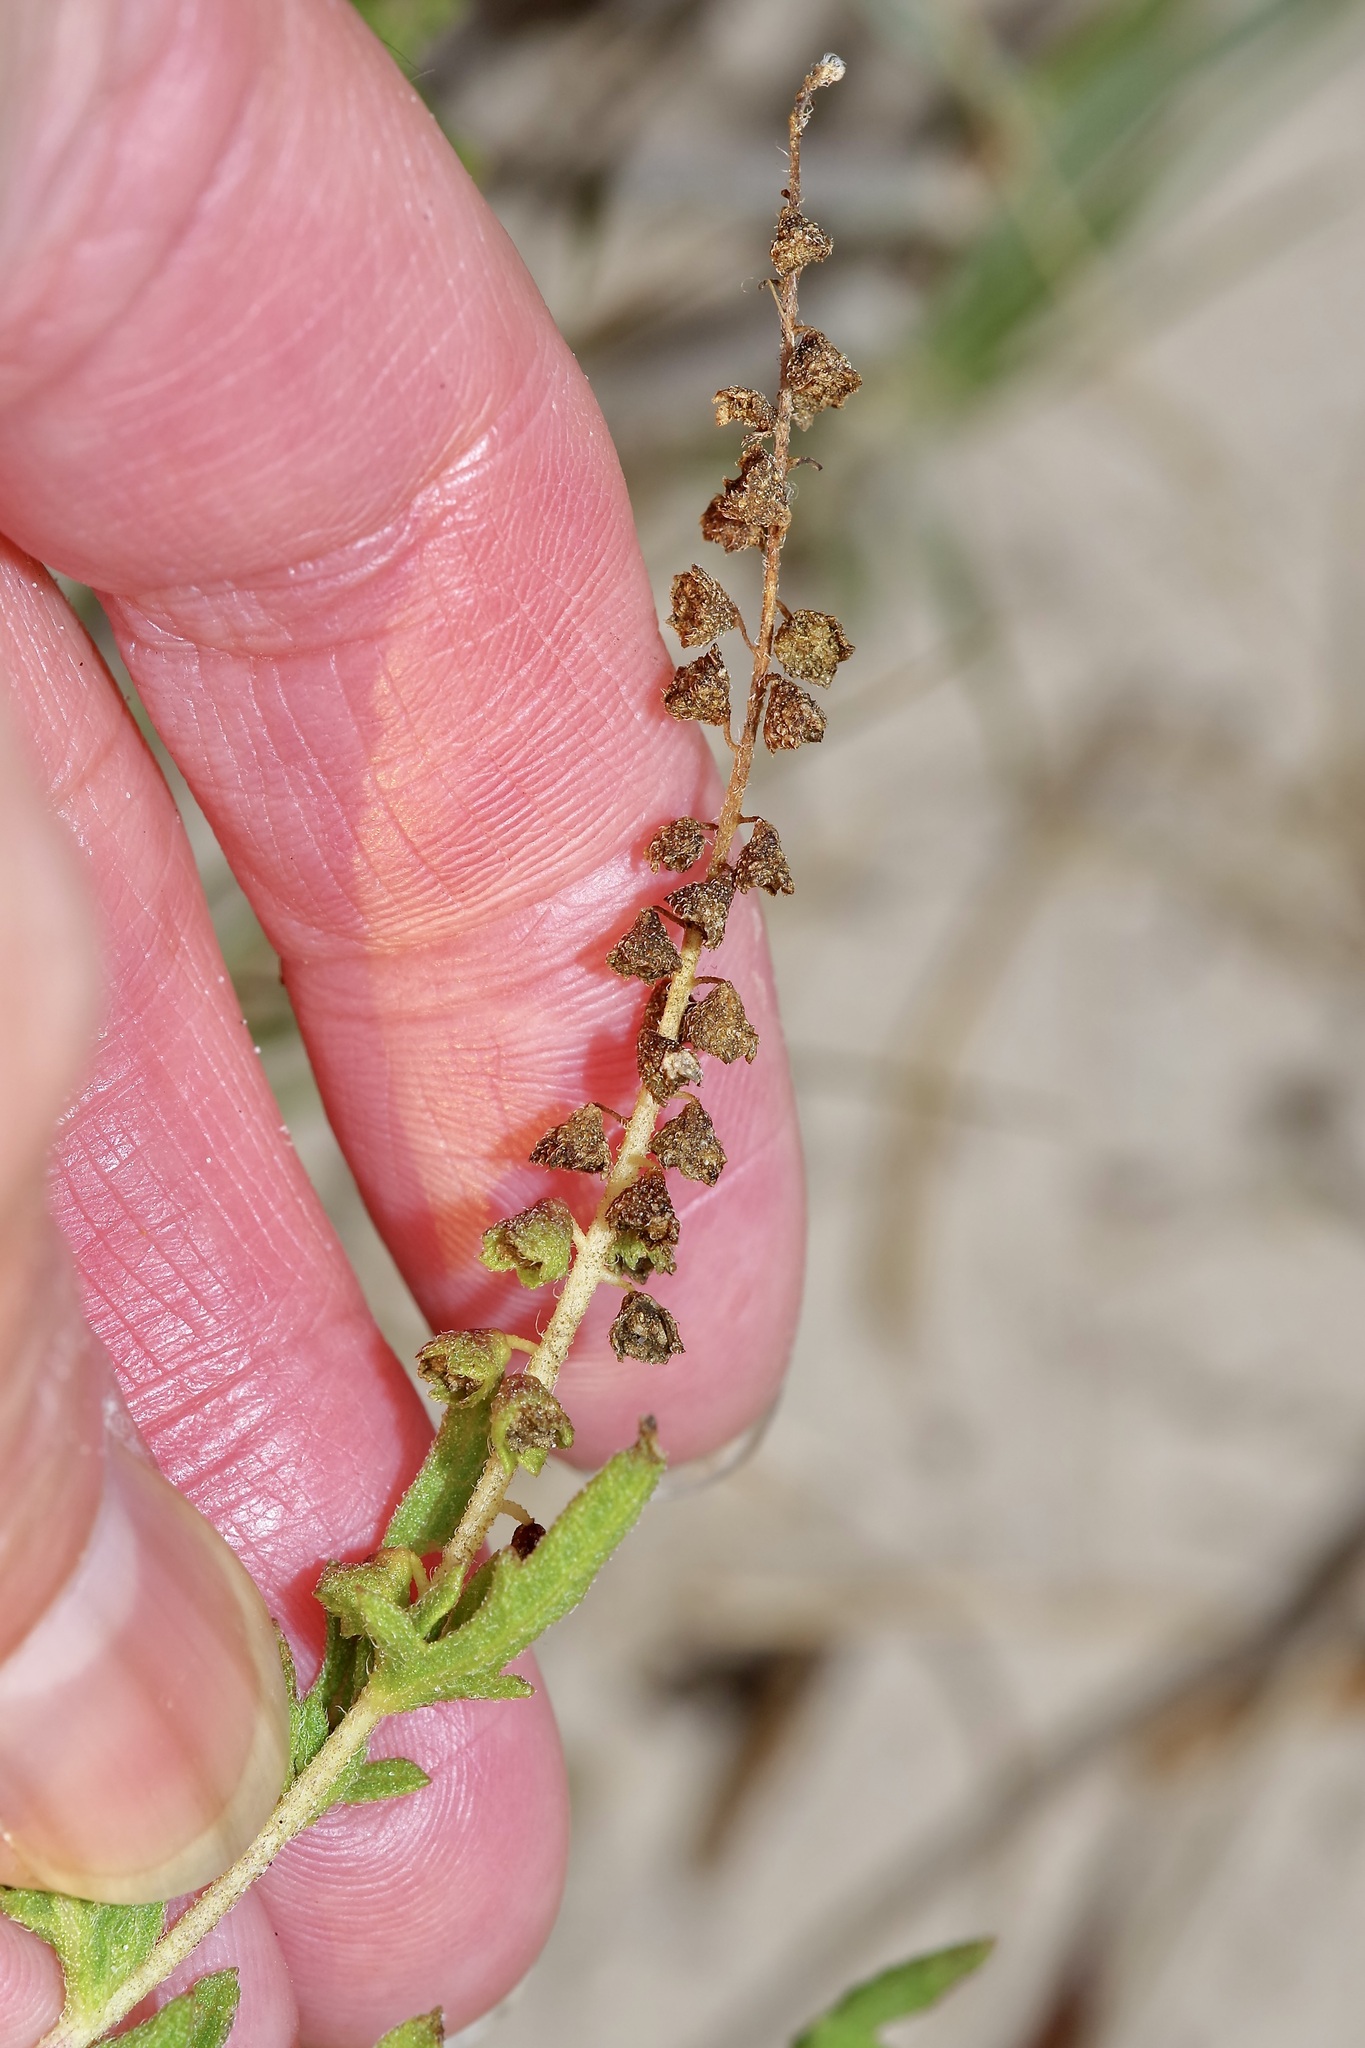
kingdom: Plantae
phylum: Tracheophyta
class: Magnoliopsida
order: Asterales
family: Asteraceae
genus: Ambrosia
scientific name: Ambrosia artemisiifolia
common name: Annual ragweed
